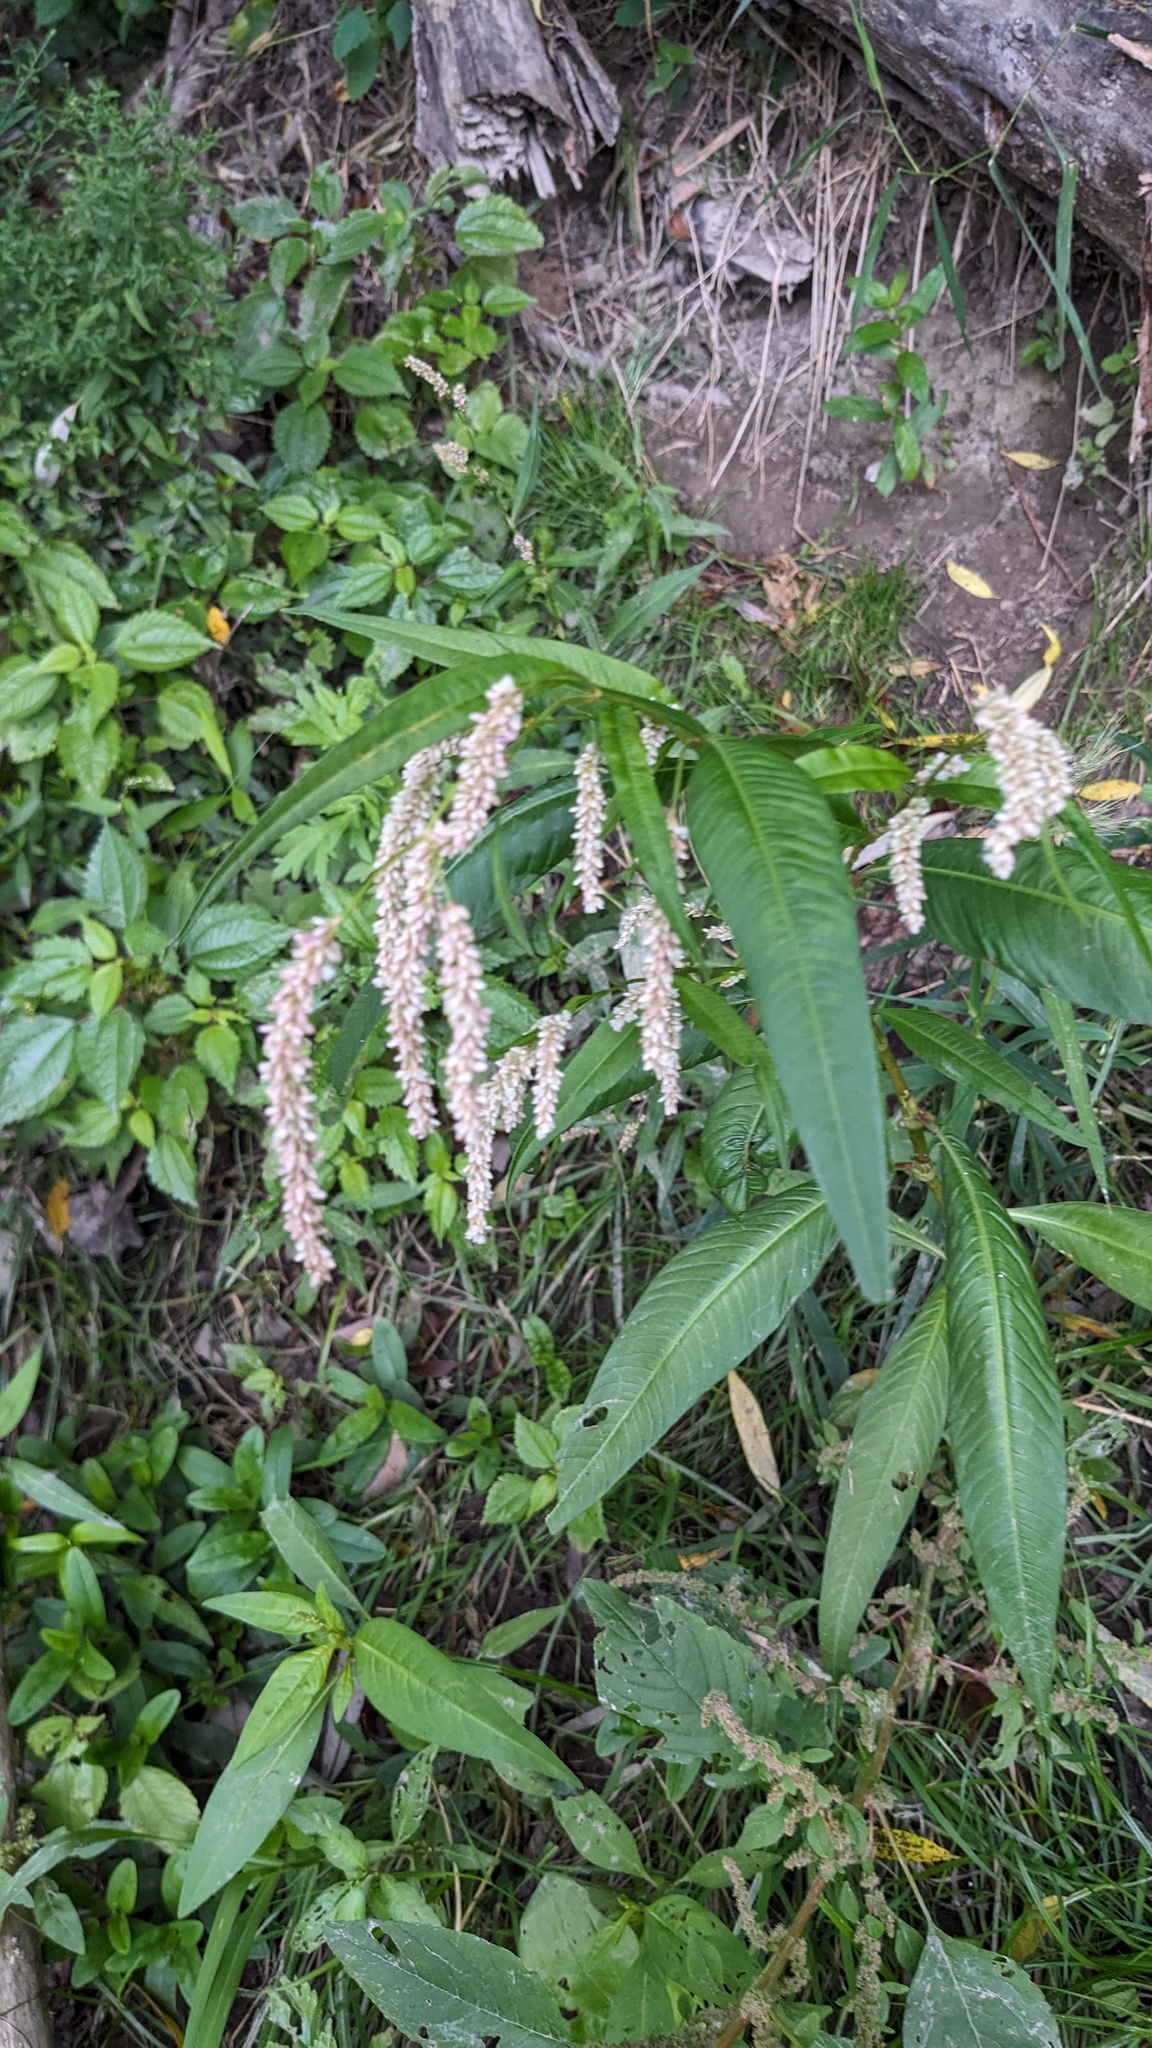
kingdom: Plantae
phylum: Tracheophyta
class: Magnoliopsida
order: Caryophyllales
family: Polygonaceae
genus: Persicaria
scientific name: Persicaria lapathifolia
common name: Curlytop knotweed
